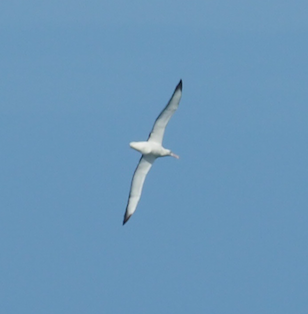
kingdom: Animalia
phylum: Chordata
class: Aves
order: Procellariiformes
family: Diomedeidae
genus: Diomedea
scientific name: Diomedea sanfordi
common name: Northern royal albatross
